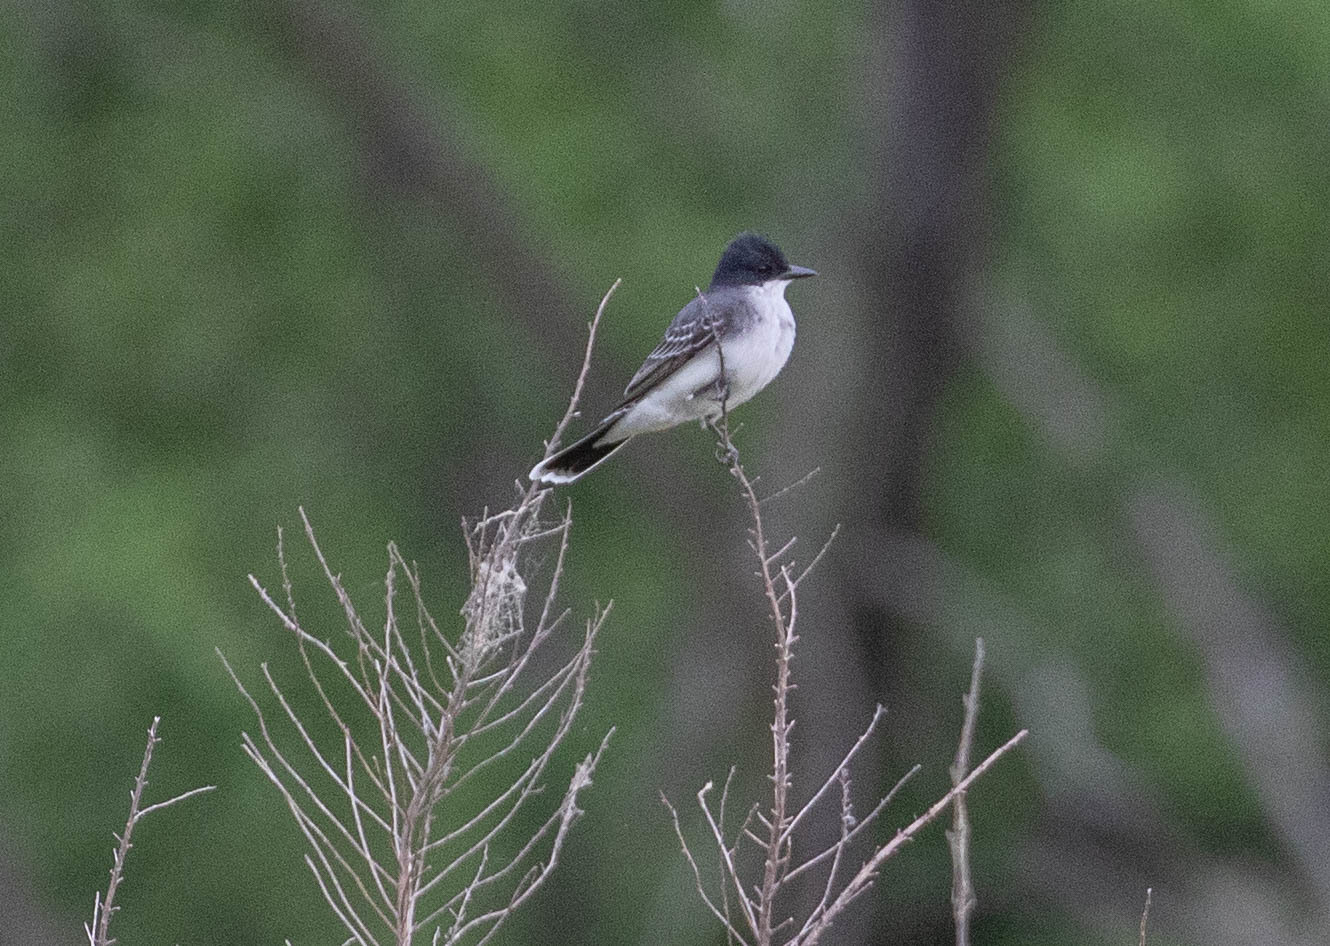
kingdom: Animalia
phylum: Chordata
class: Aves
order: Passeriformes
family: Tyrannidae
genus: Tyrannus
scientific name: Tyrannus tyrannus
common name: Eastern kingbird
